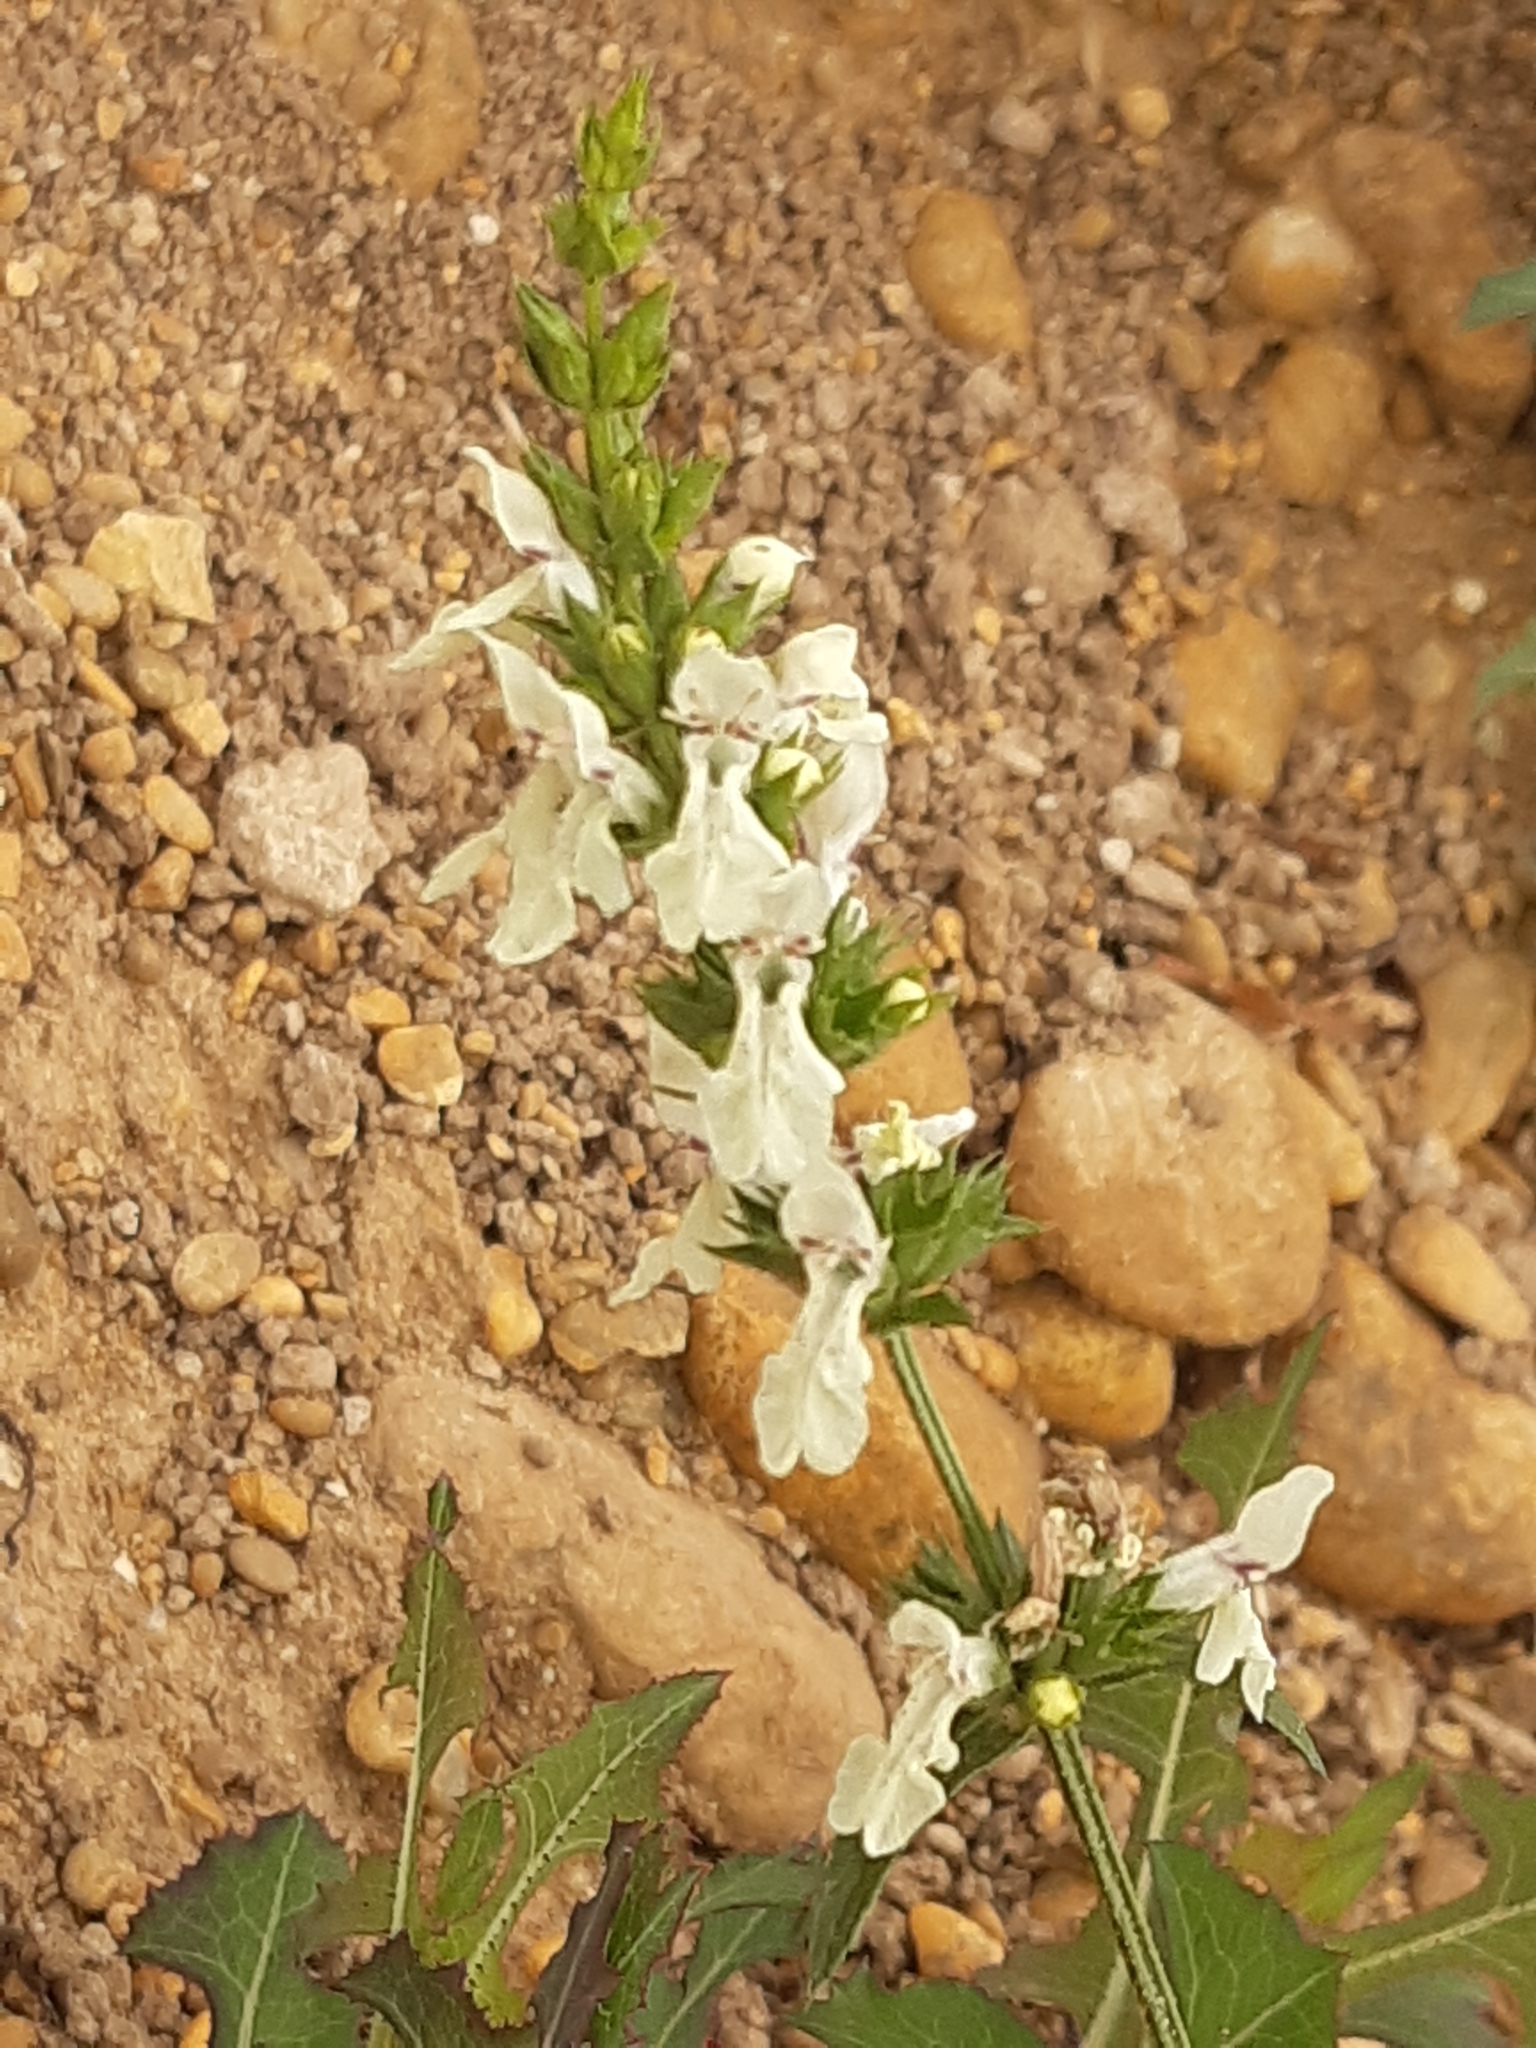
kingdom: Plantae
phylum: Tracheophyta
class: Magnoliopsida
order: Lamiales
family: Lamiaceae
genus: Stachys
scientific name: Stachys recta
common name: Perennial yellow-woundwort
